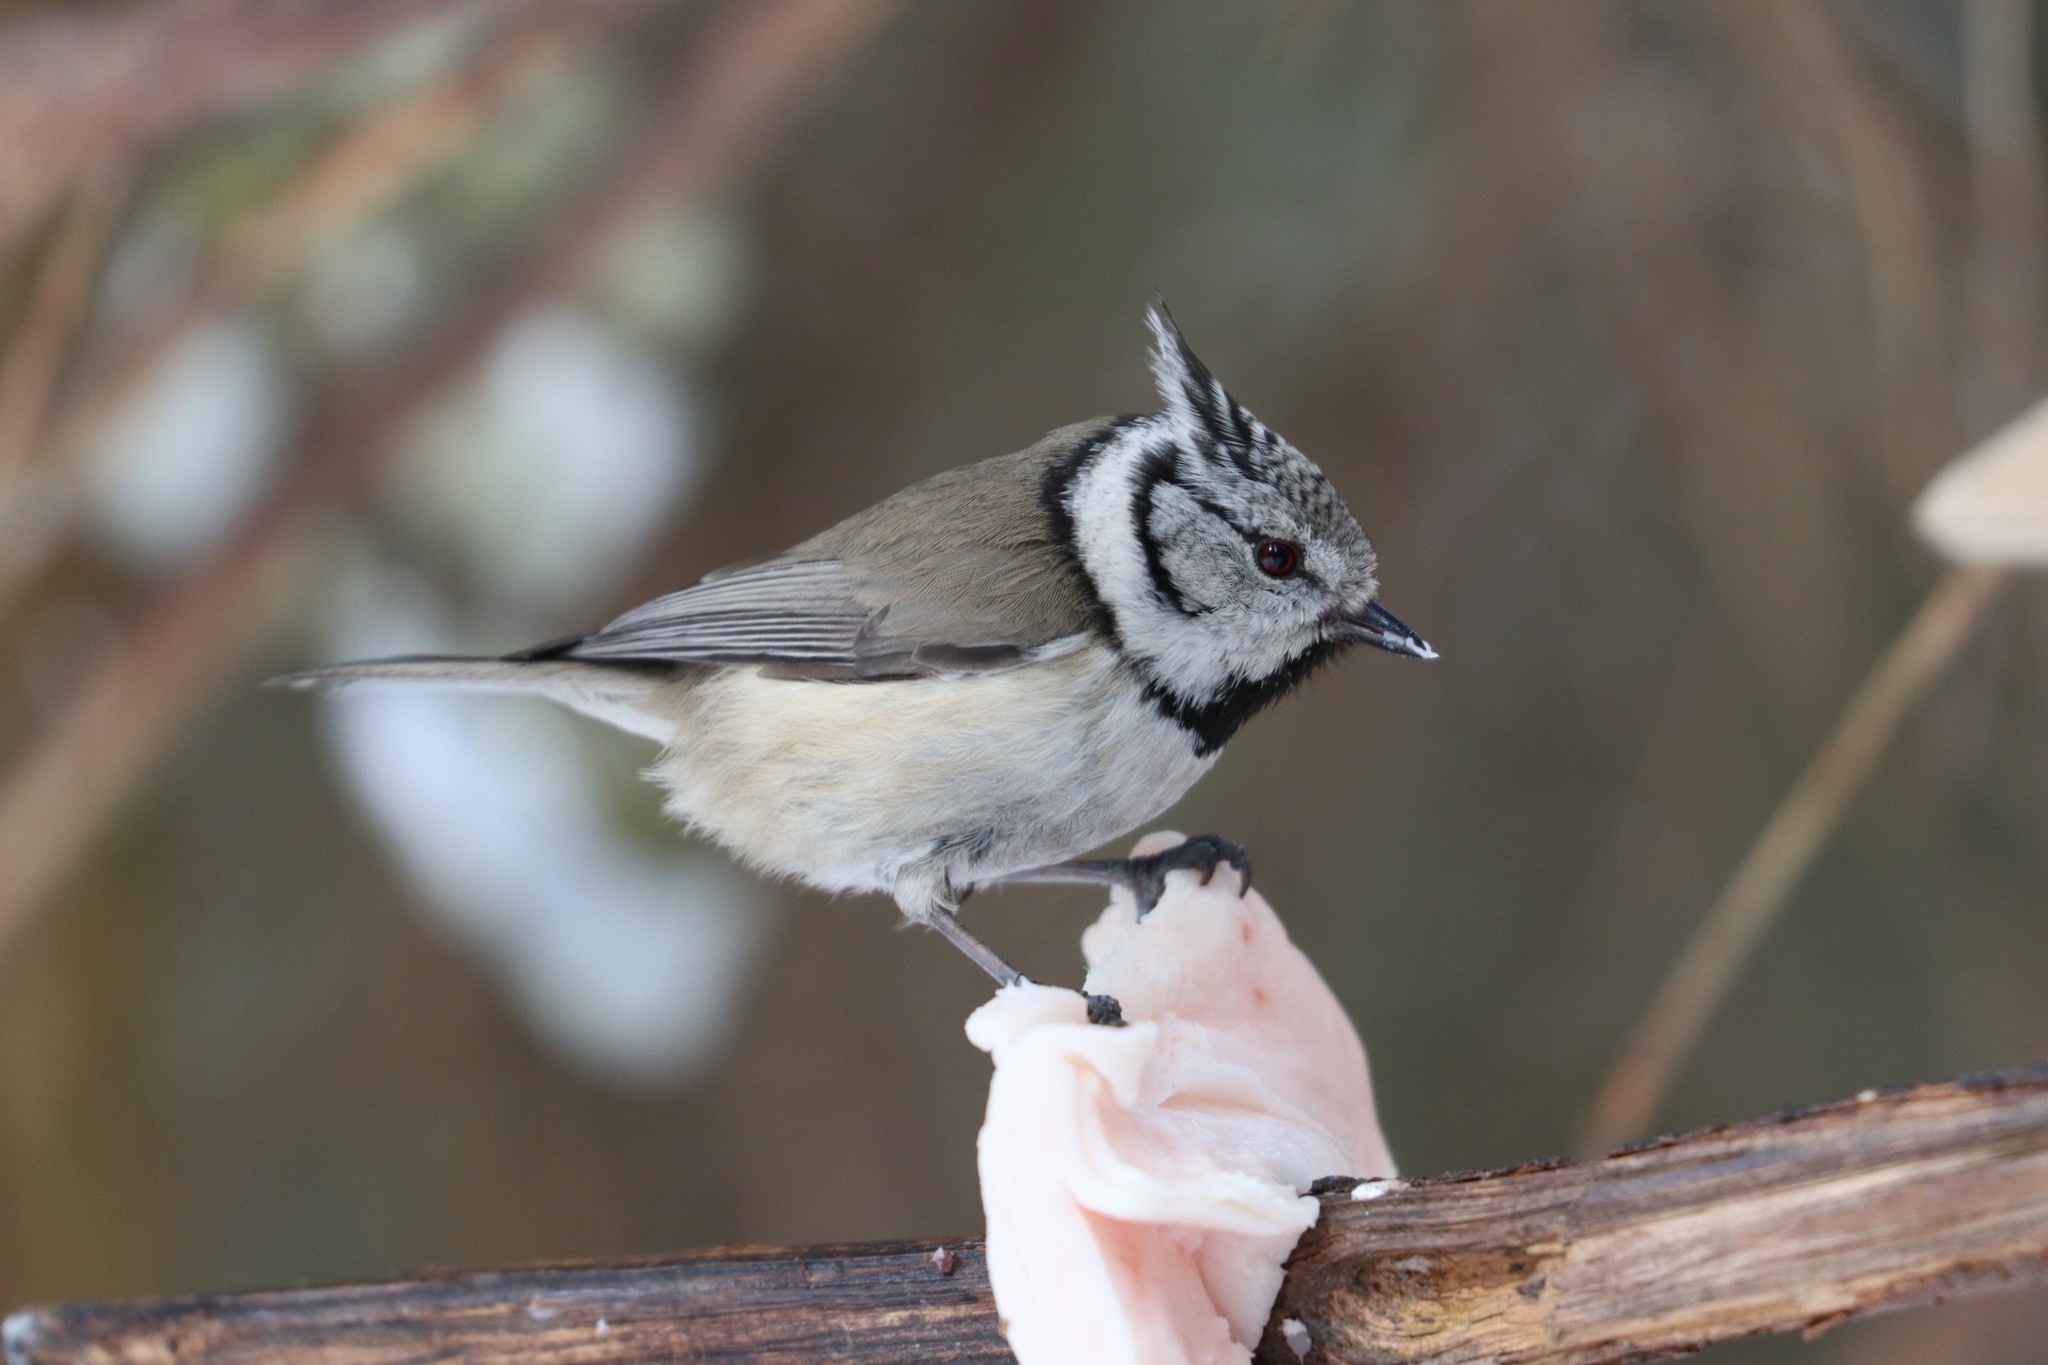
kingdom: Animalia
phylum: Chordata
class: Aves
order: Passeriformes
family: Paridae
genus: Lophophanes
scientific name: Lophophanes cristatus
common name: European crested tit
